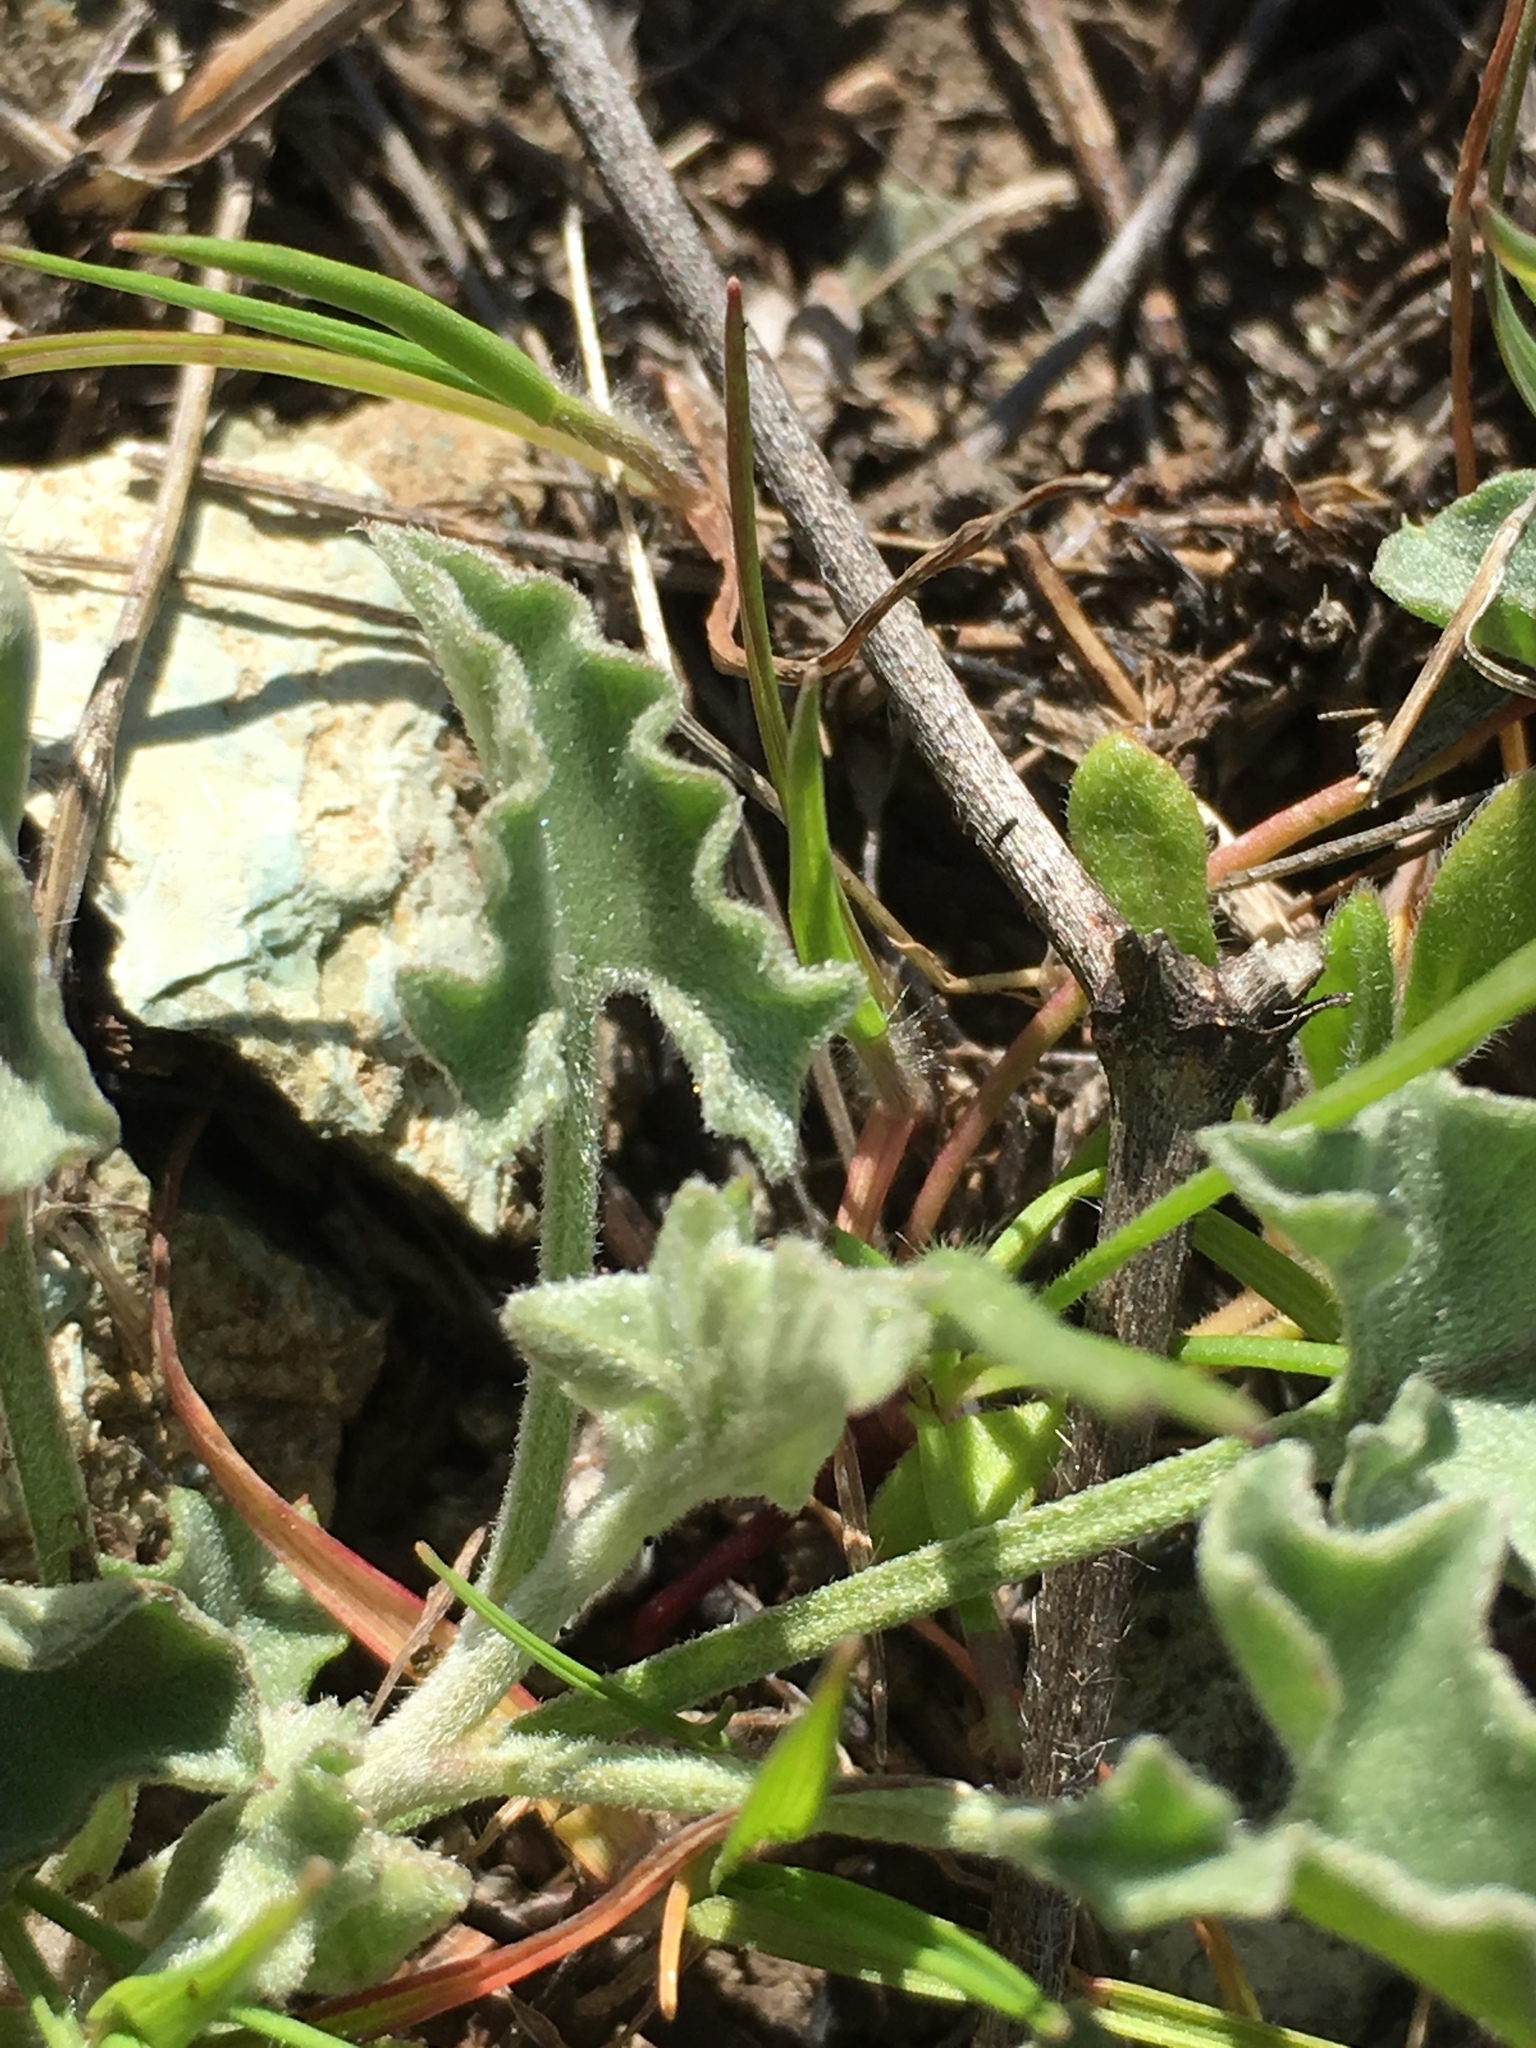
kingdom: Plantae
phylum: Tracheophyta
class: Magnoliopsida
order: Solanales
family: Convolvulaceae
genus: Calystegia
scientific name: Calystegia collina
